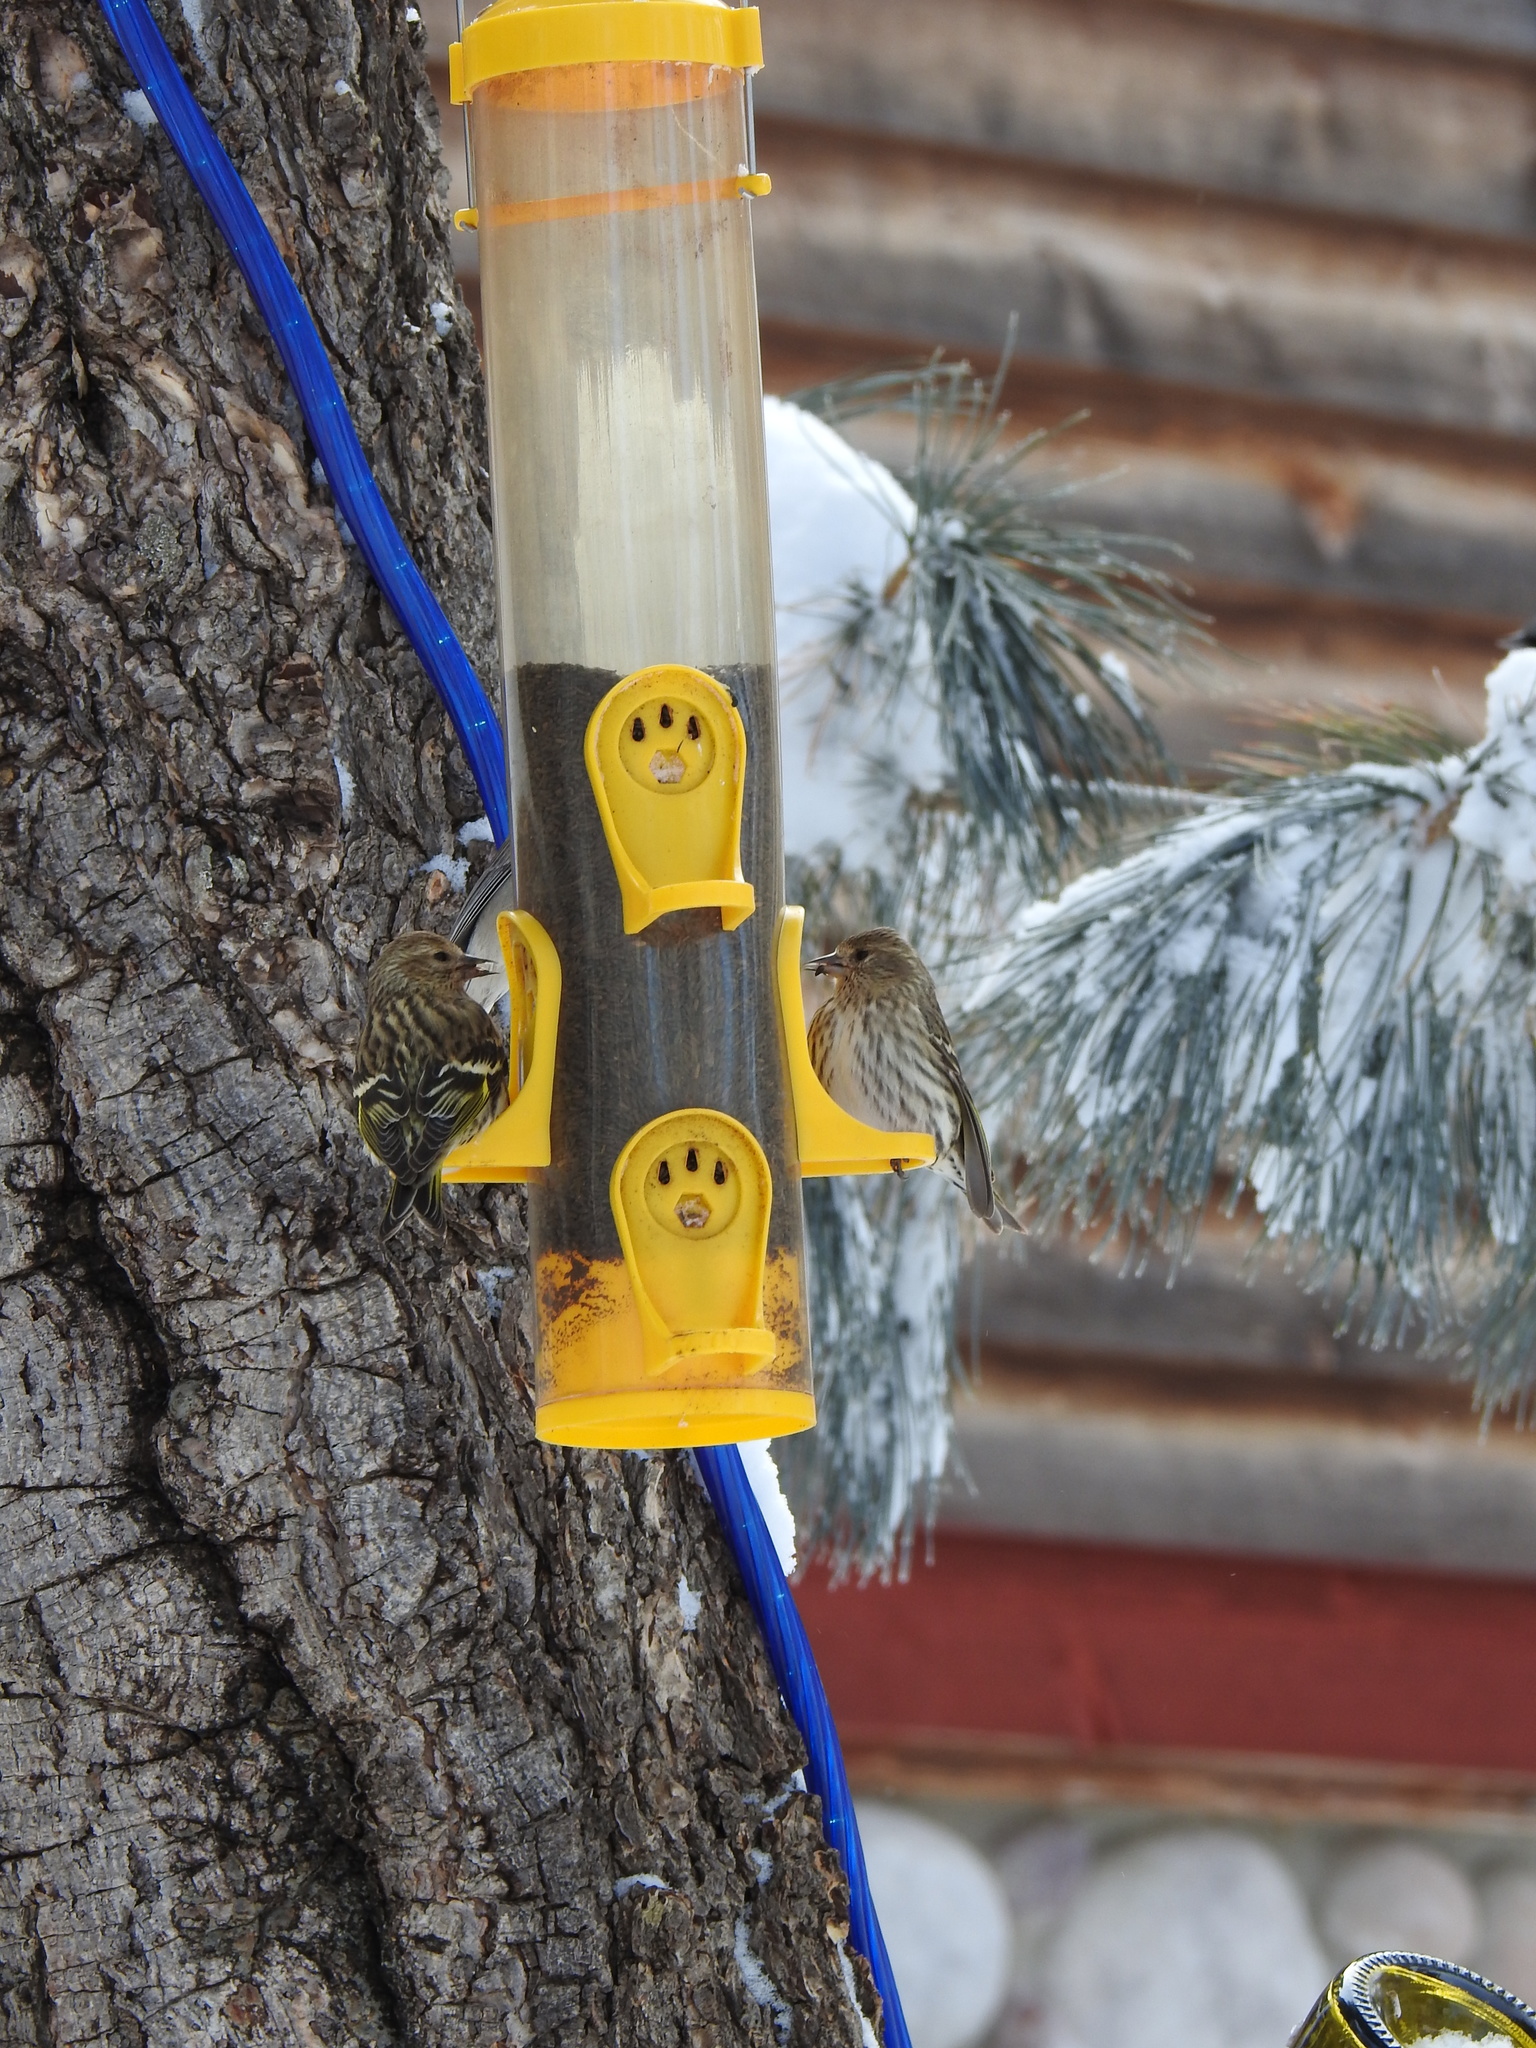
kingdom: Animalia
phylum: Chordata
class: Aves
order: Passeriformes
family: Fringillidae
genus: Spinus
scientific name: Spinus pinus
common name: Pine siskin
